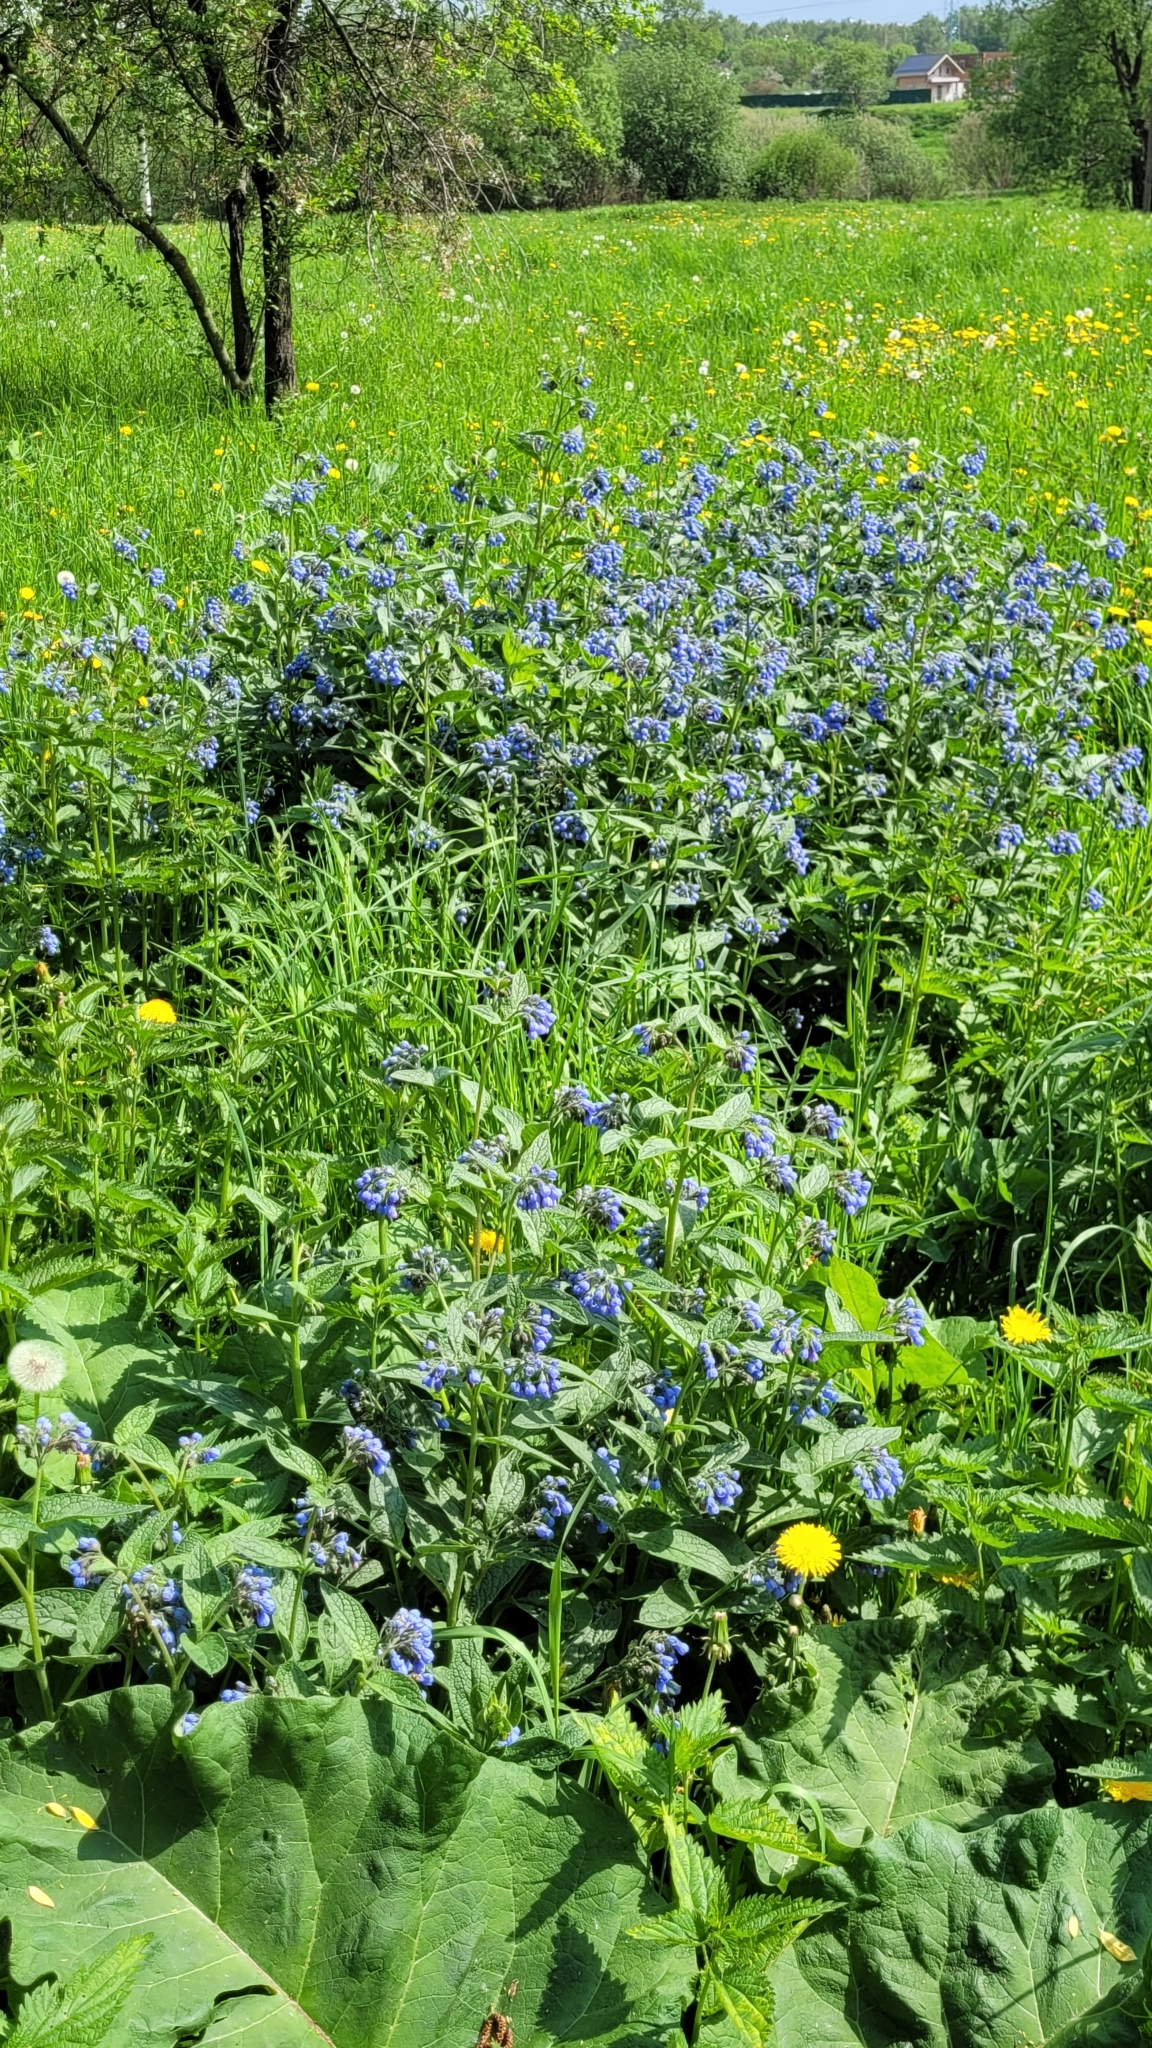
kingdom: Plantae
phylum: Tracheophyta
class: Magnoliopsida
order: Boraginales
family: Boraginaceae
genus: Symphytum
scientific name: Symphytum caucasicum
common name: Caucasian comfrey
